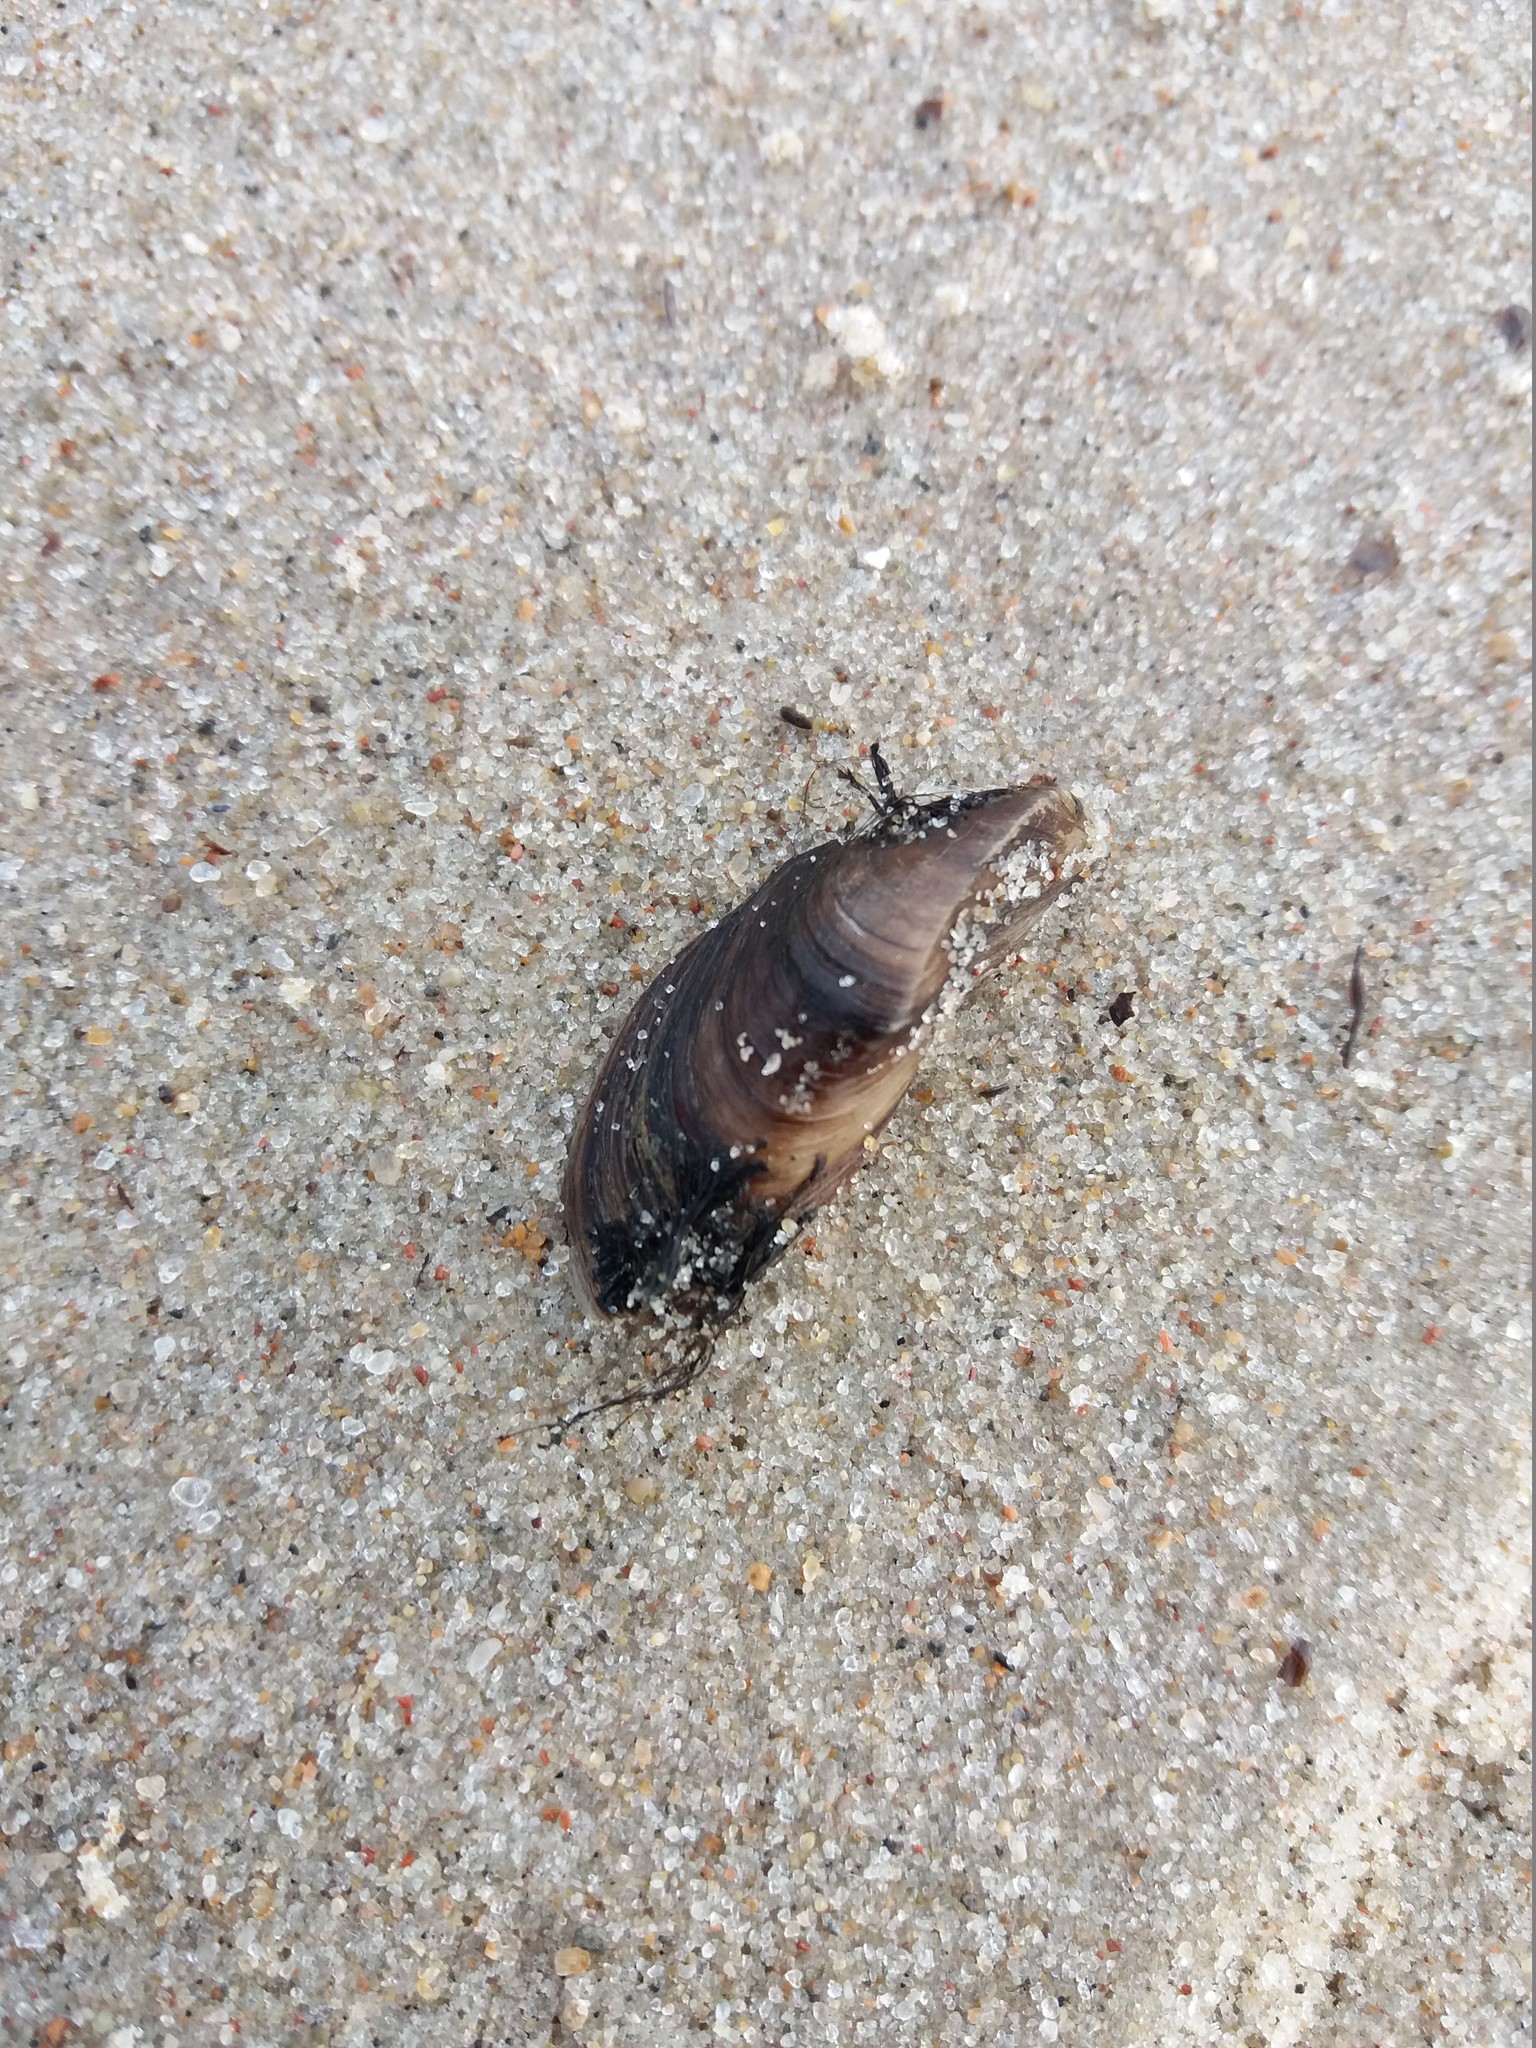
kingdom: Animalia
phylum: Mollusca
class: Bivalvia
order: Myida
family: Dreissenidae
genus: Dreissena
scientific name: Dreissena polymorpha
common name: Zebra mussel
